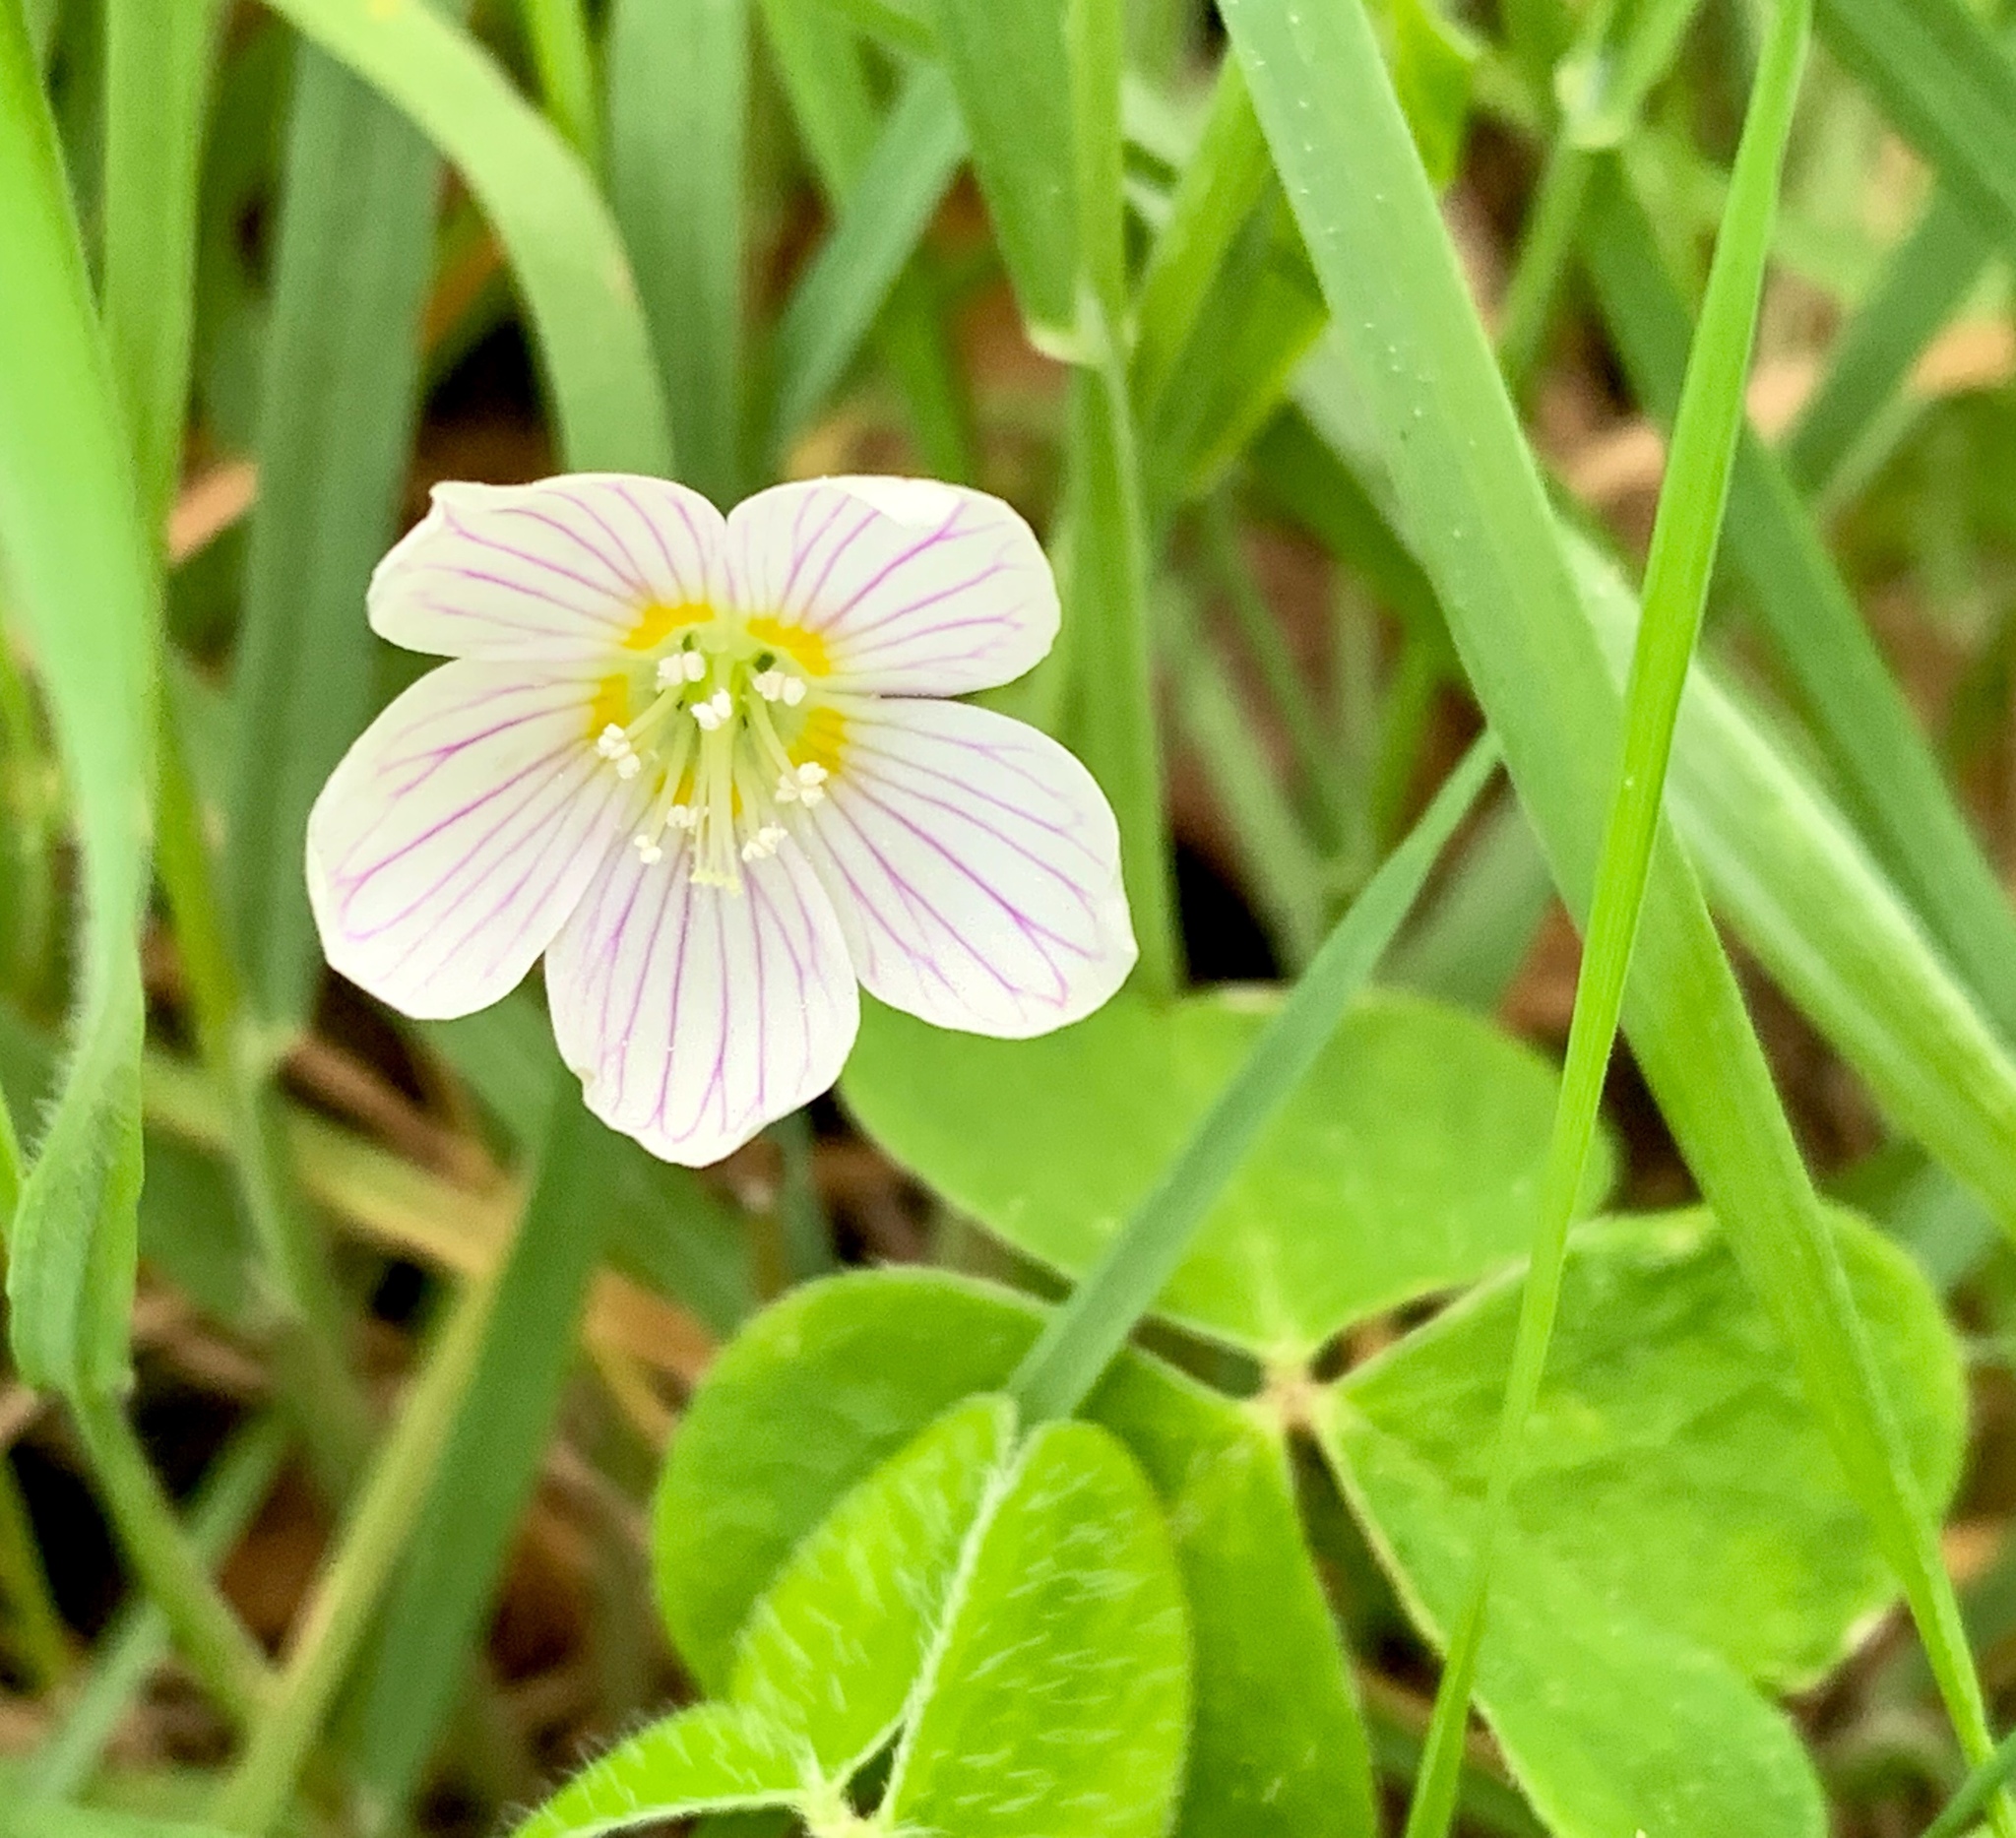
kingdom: Plantae
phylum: Tracheophyta
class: Magnoliopsida
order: Oxalidales
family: Oxalidaceae
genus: Oxalis
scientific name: Oxalis acetosella
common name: Wood-sorrel
